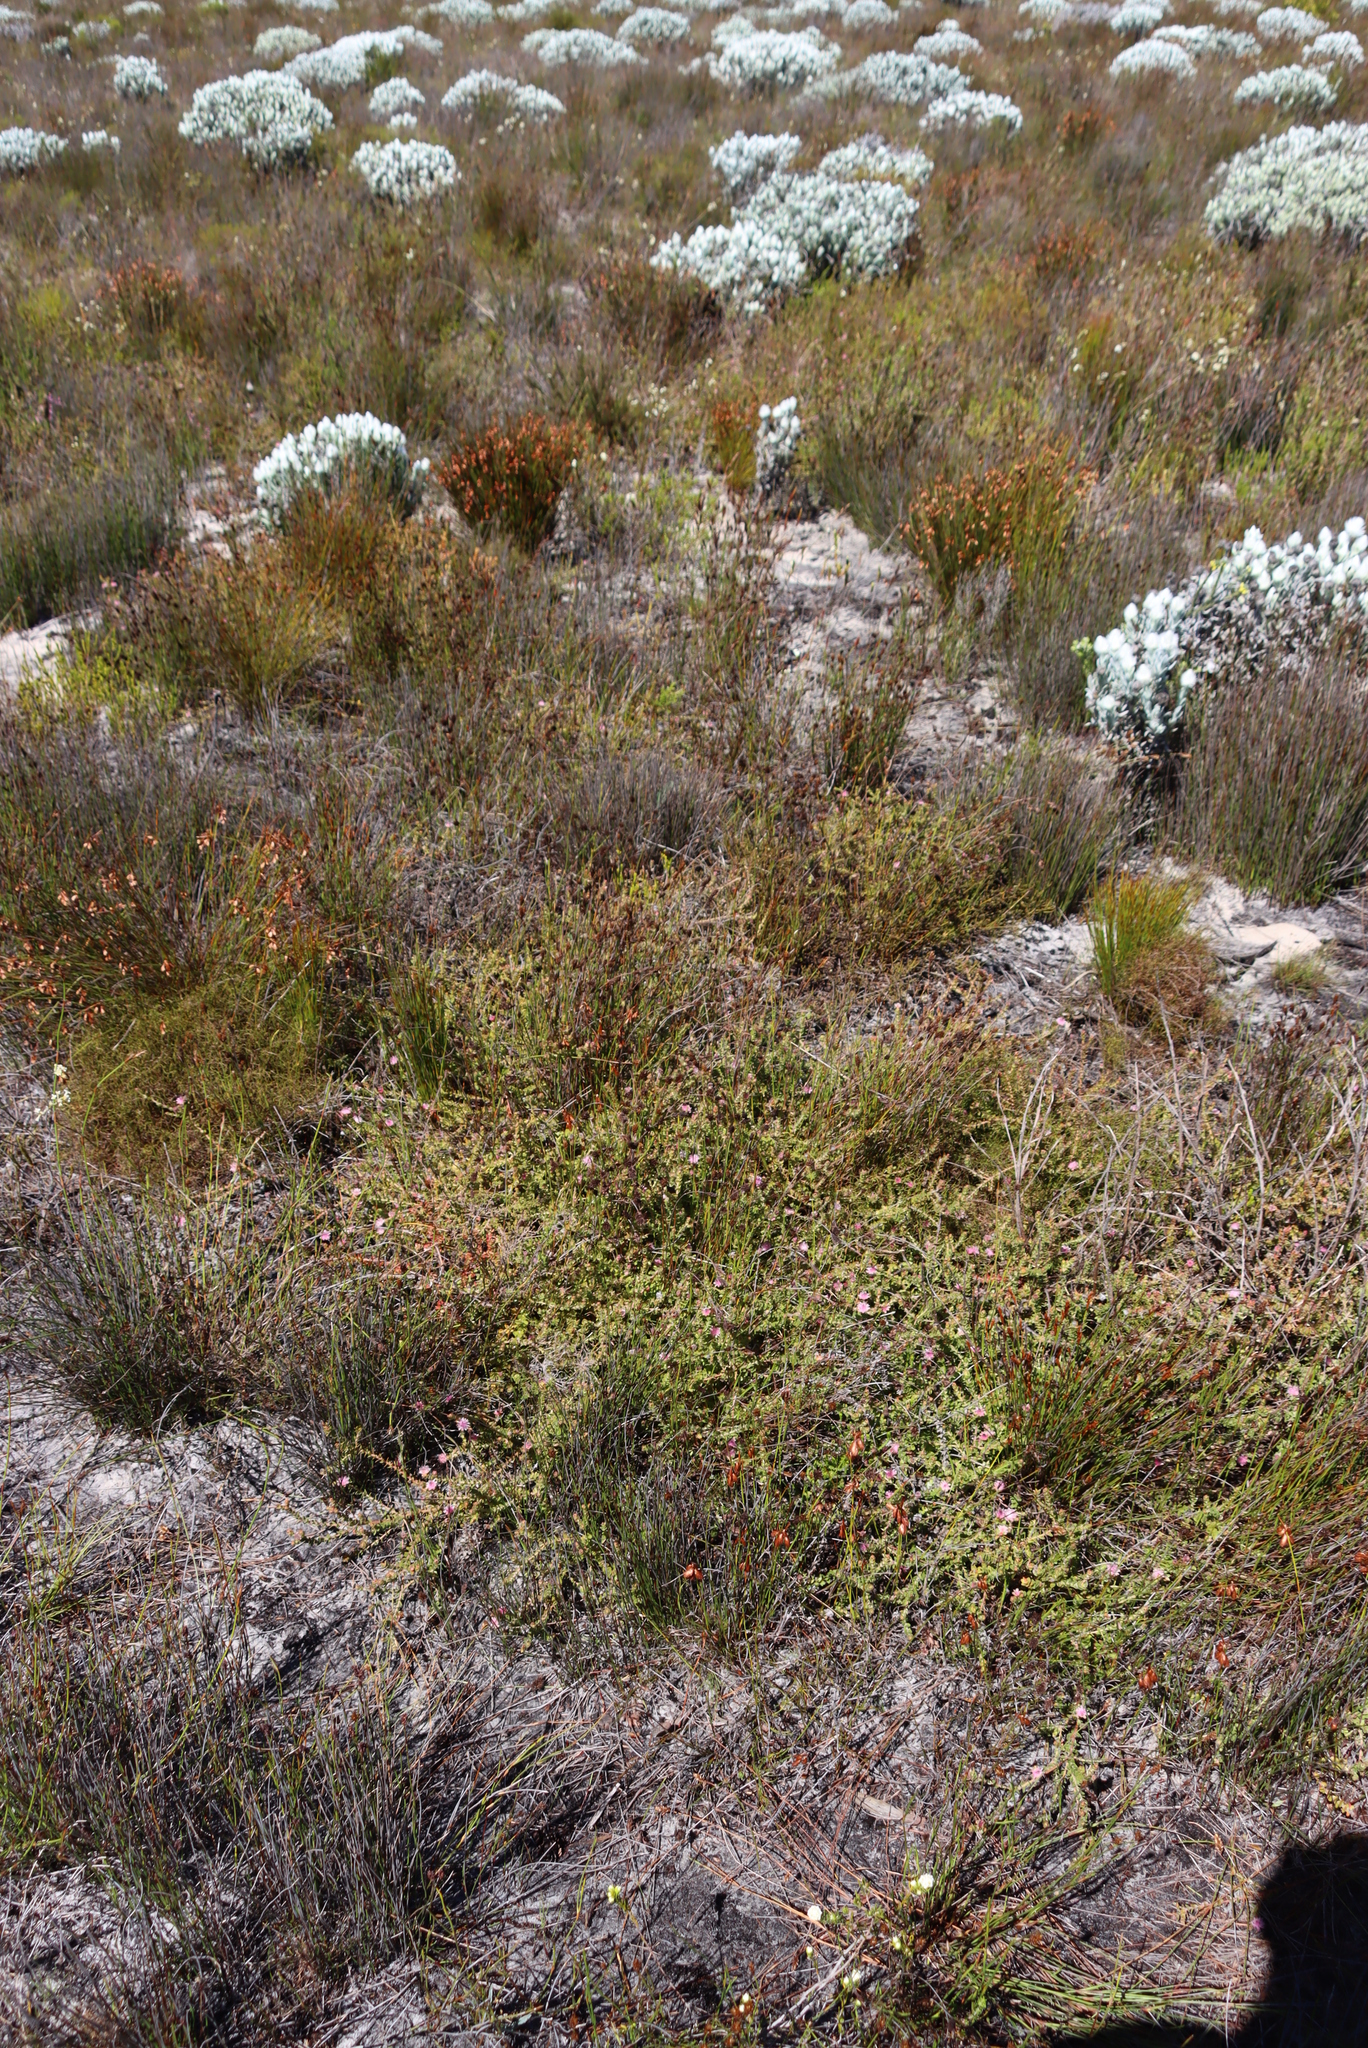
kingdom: Plantae
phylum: Tracheophyta
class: Magnoliopsida
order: Proteales
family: Proteaceae
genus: Diastella
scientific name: Diastella divaricata
